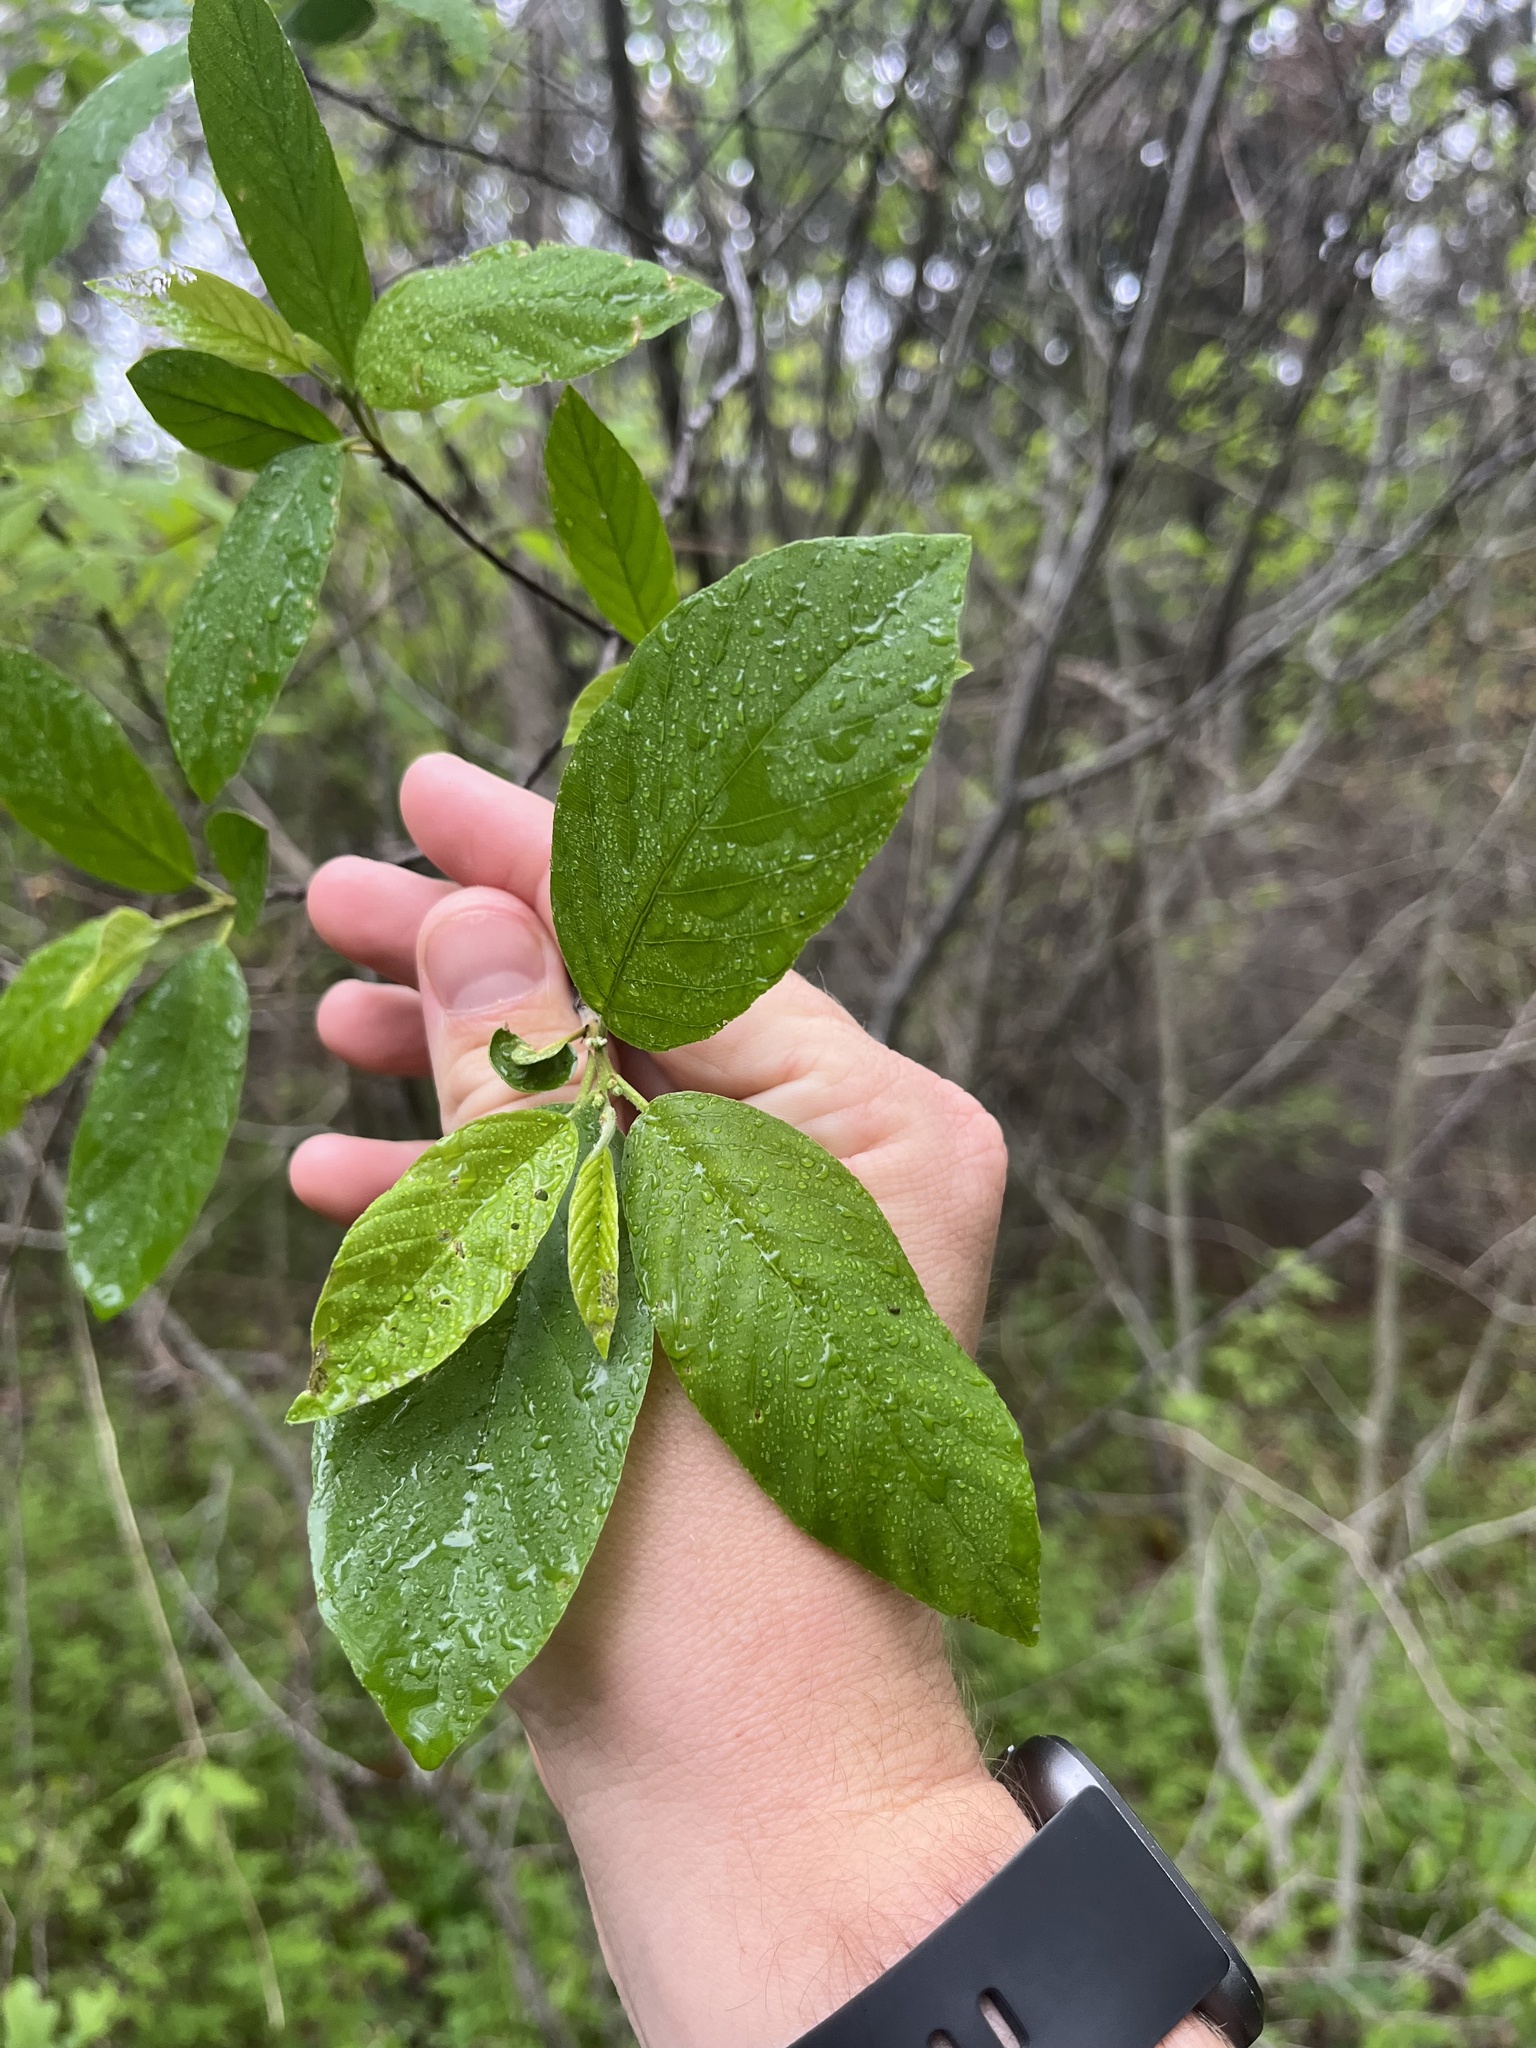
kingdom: Plantae
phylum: Tracheophyta
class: Magnoliopsida
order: Rosales
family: Rhamnaceae
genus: Frangula
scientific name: Frangula caroliniana
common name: Carolina buckthorn
